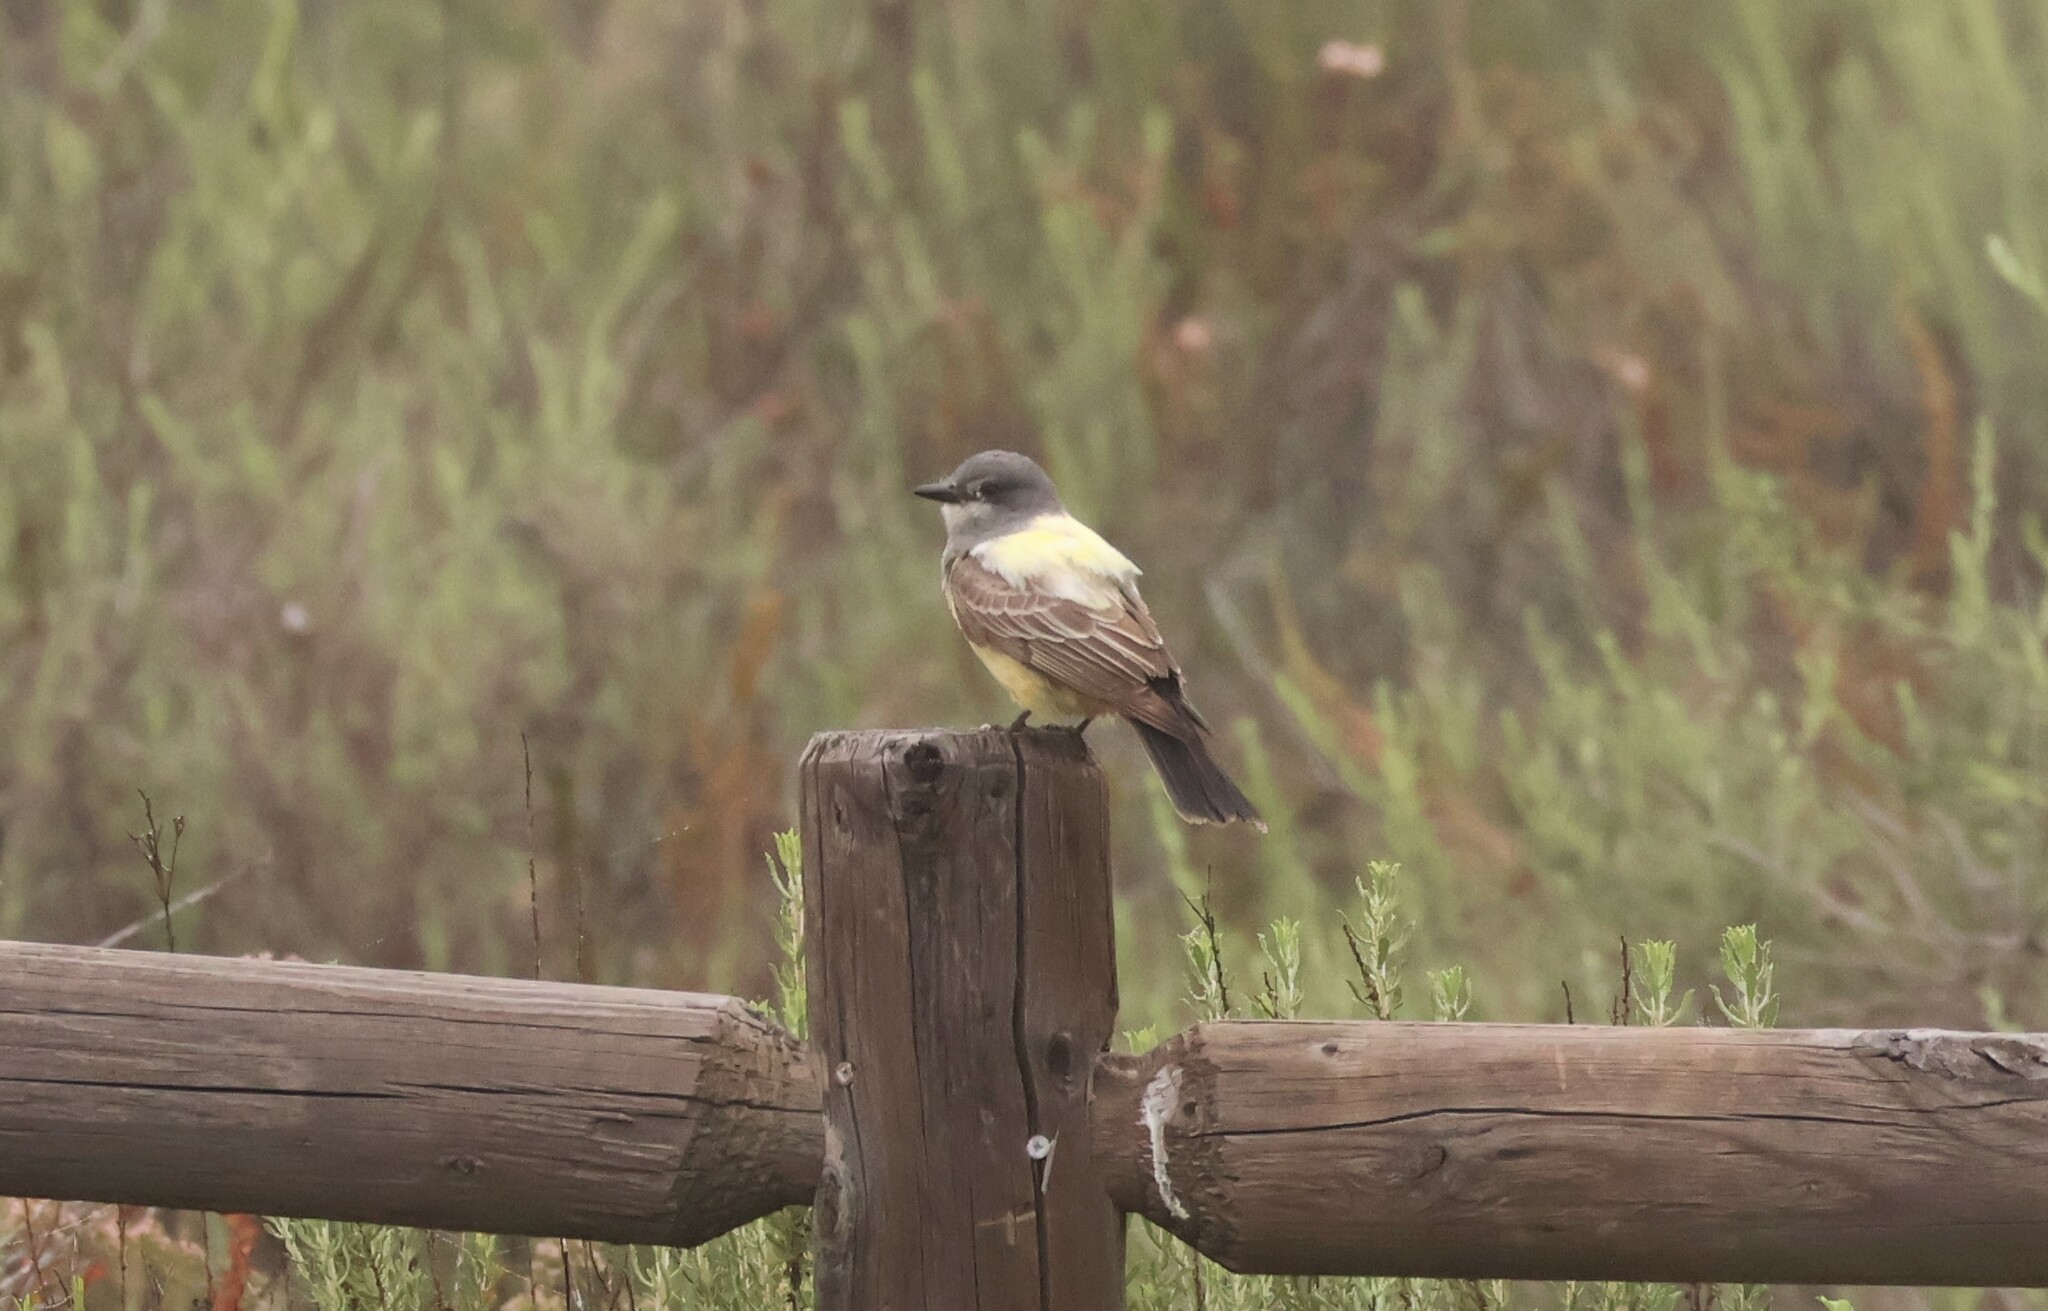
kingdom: Animalia
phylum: Chordata
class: Aves
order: Passeriformes
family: Tyrannidae
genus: Tyrannus
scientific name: Tyrannus vociferans
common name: Cassin's kingbird
